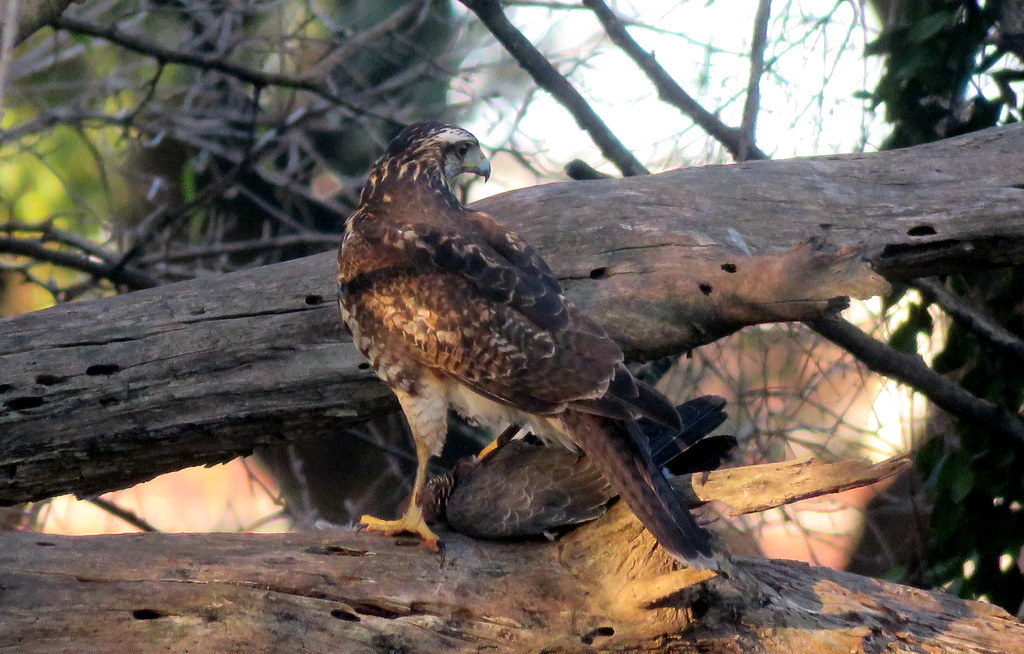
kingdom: Animalia
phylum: Chordata
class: Aves
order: Accipitriformes
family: Accipitridae
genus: Parabuteo
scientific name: Parabuteo unicinctus
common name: Harris's hawk
